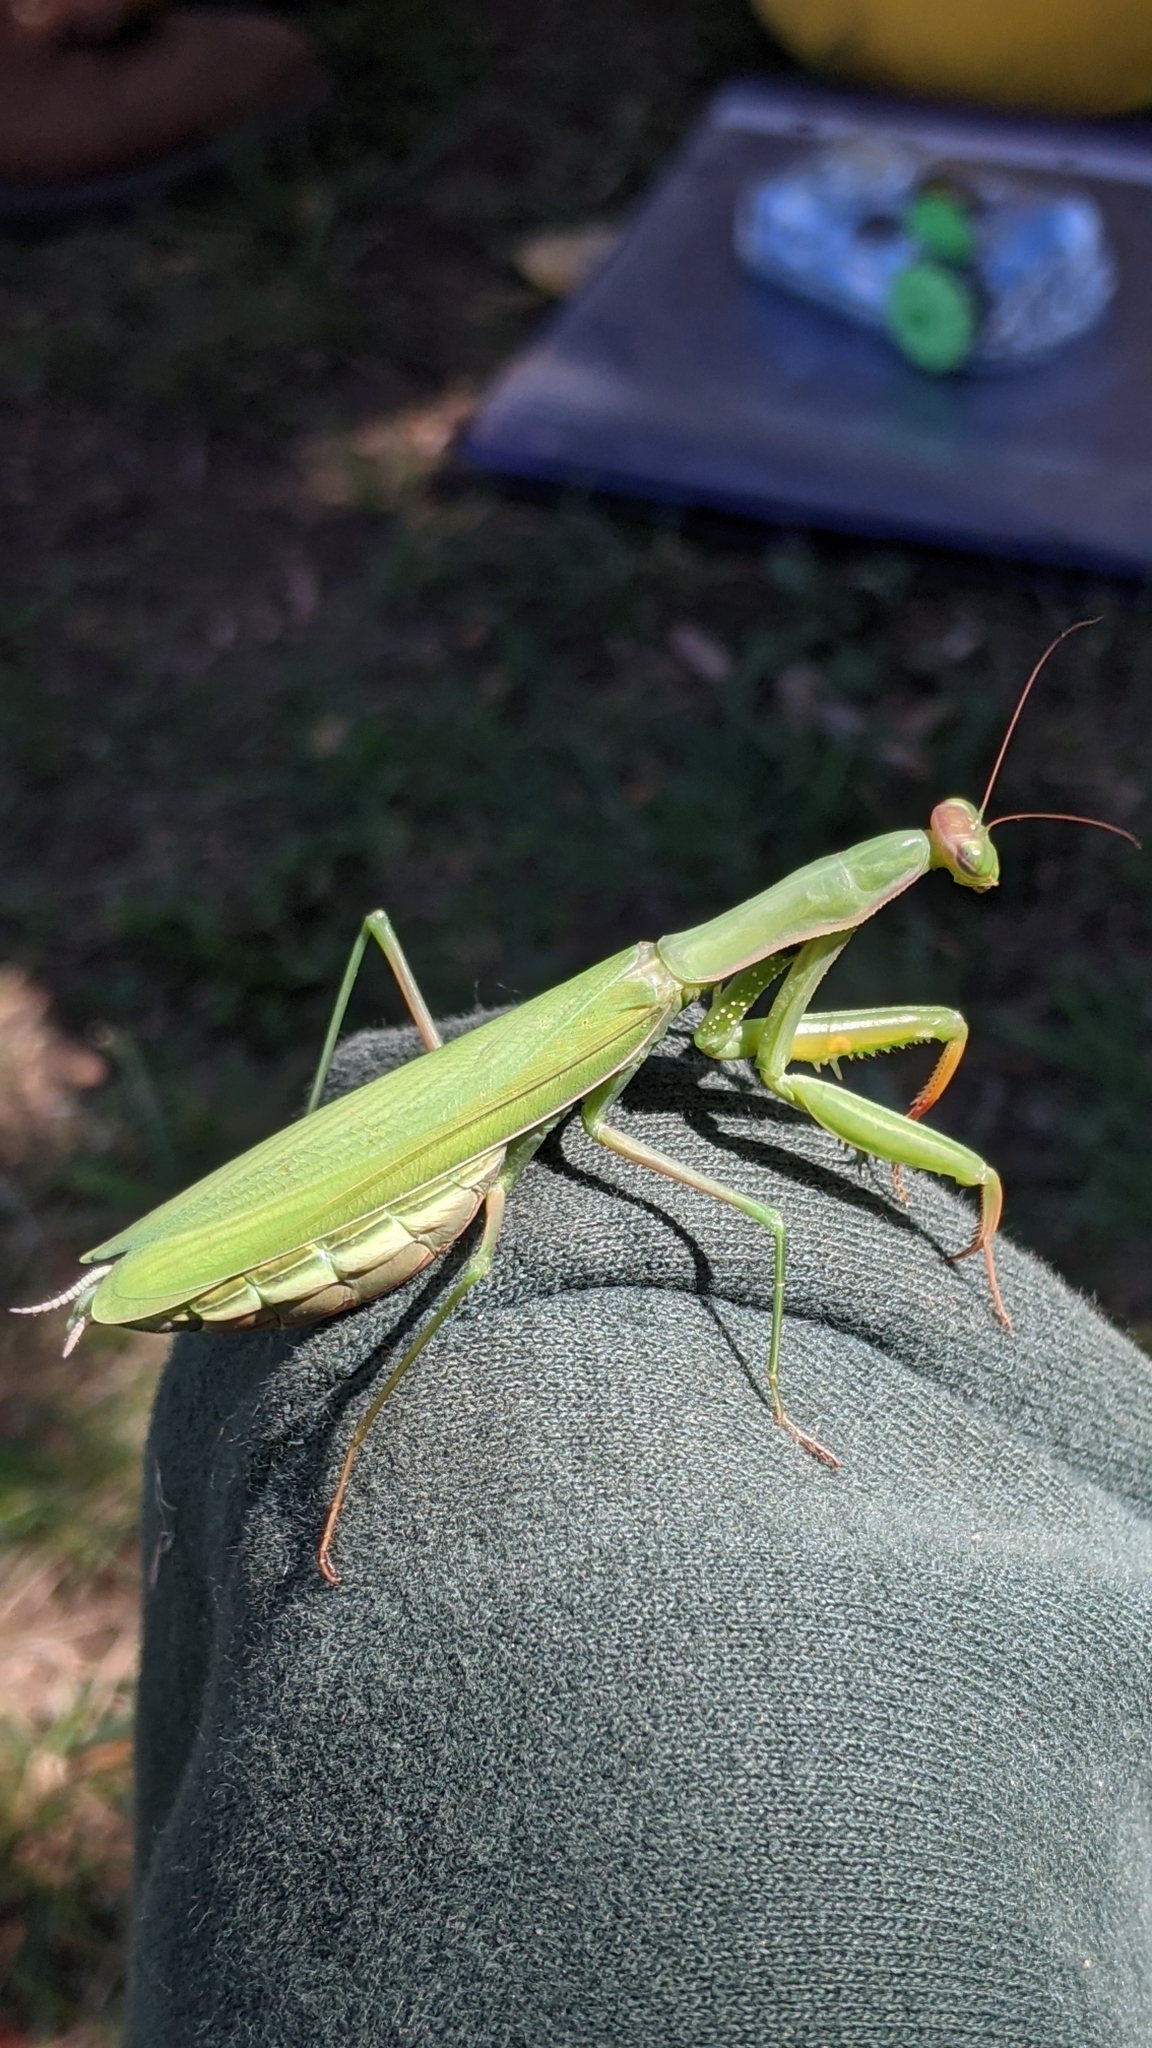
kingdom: Animalia
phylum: Arthropoda
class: Insecta
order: Mantodea
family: Mantidae
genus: Mantis
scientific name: Mantis religiosa
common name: Praying mantis
